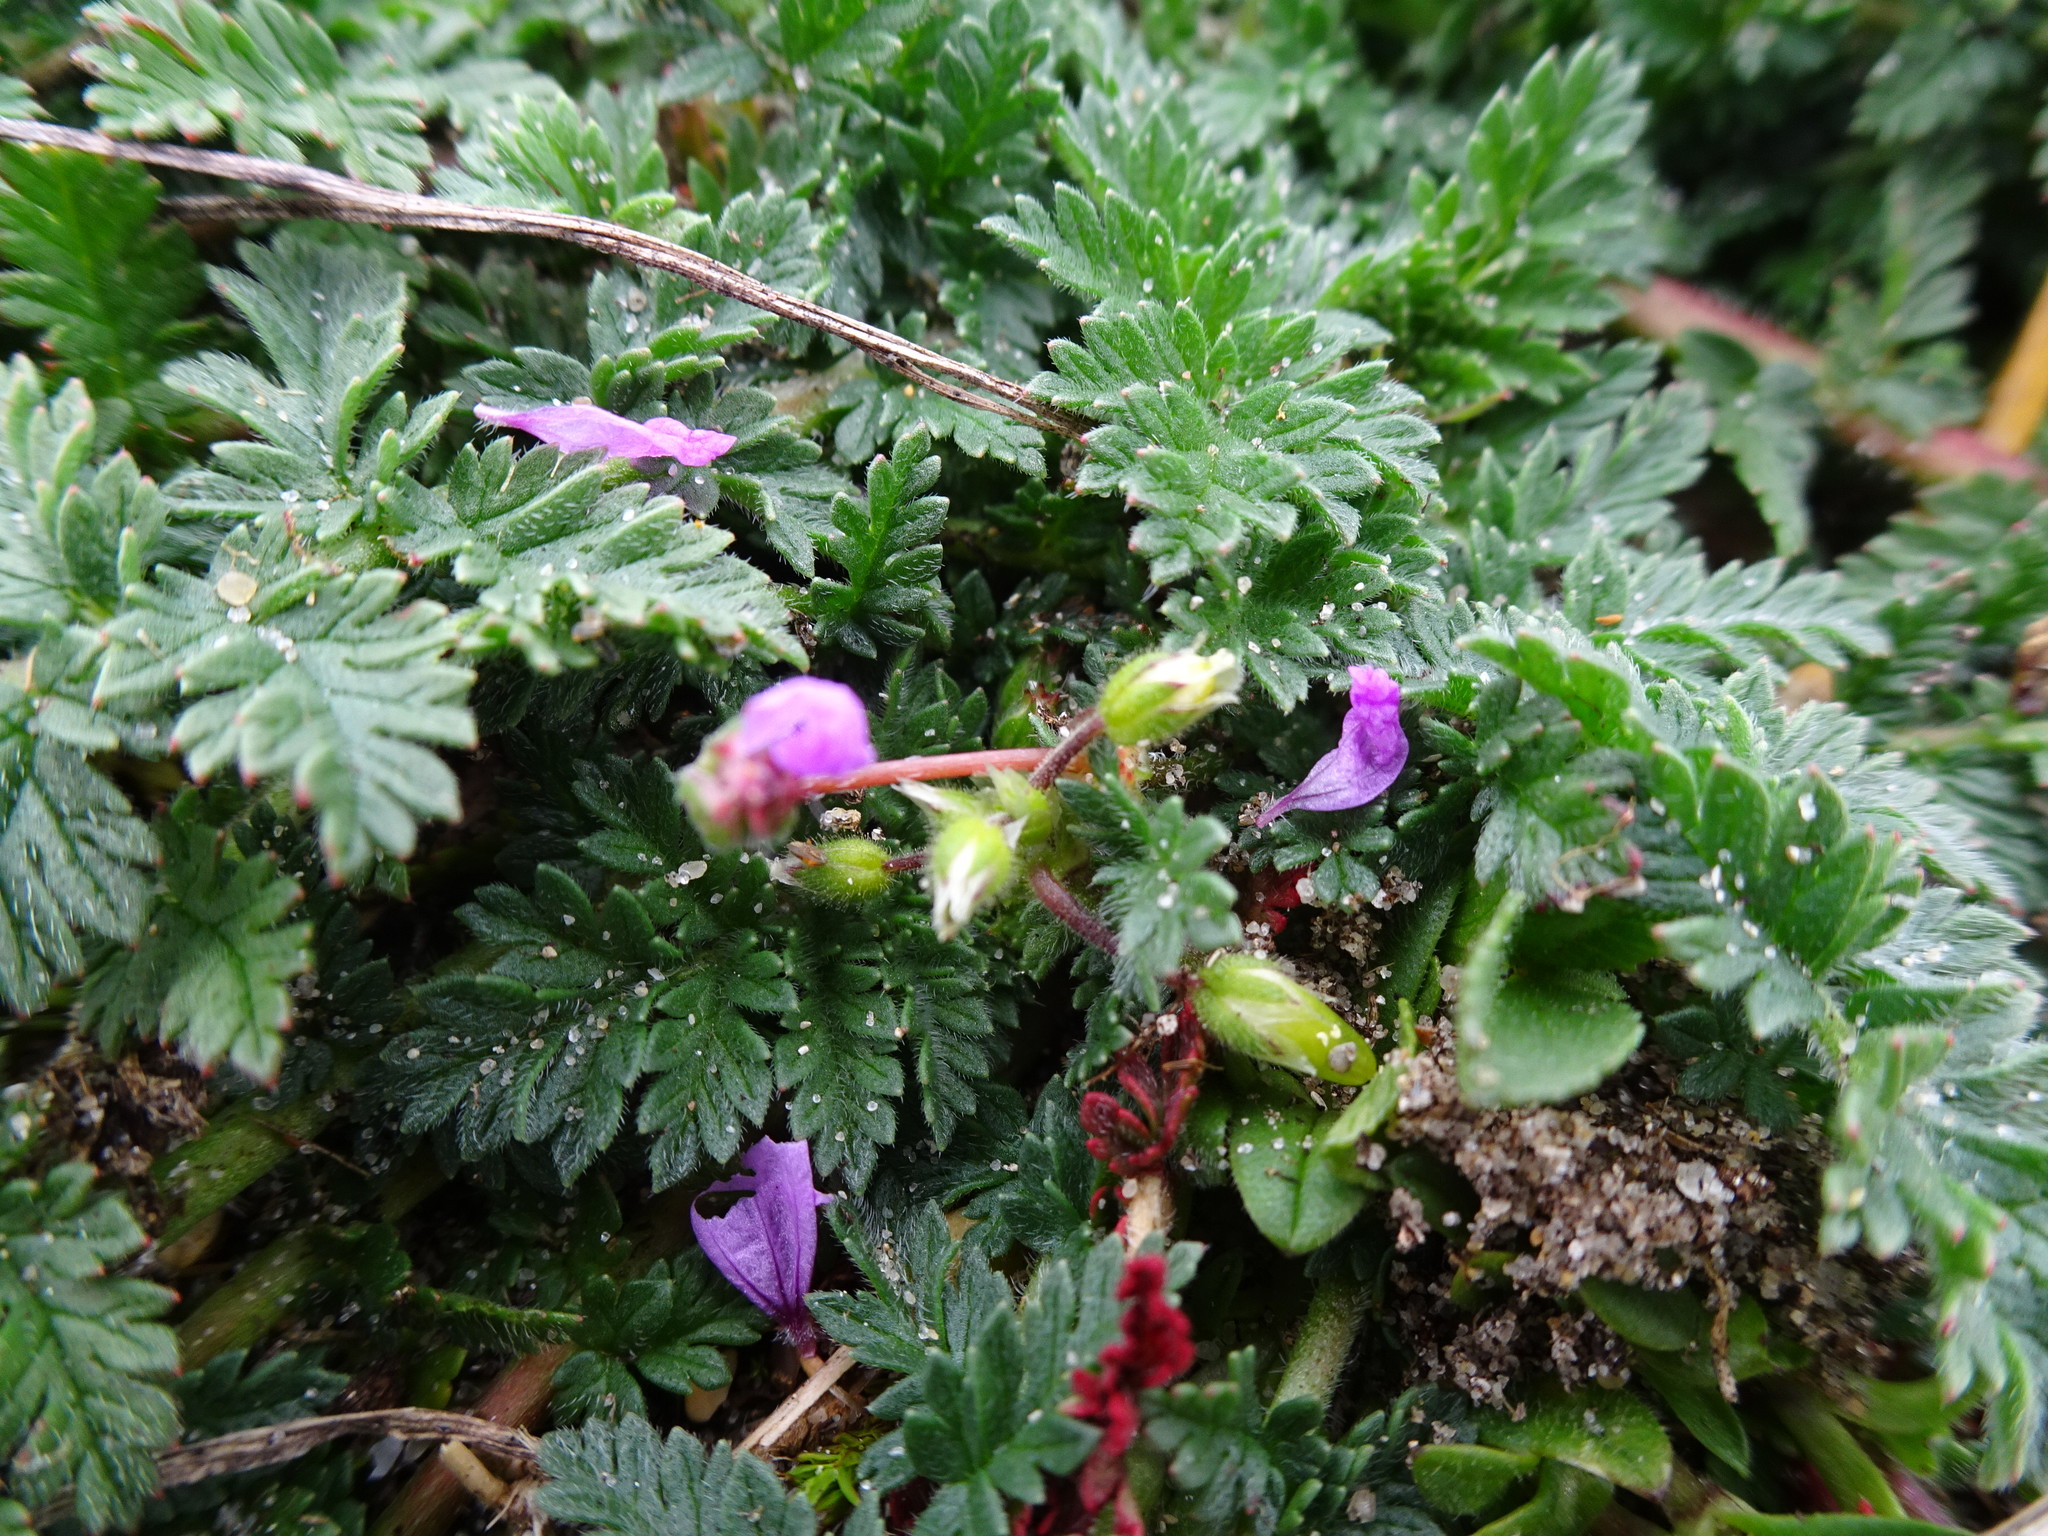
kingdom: Plantae
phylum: Tracheophyta
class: Magnoliopsida
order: Geraniales
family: Geraniaceae
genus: Erodium
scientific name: Erodium cicutarium
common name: Common stork's-bill
